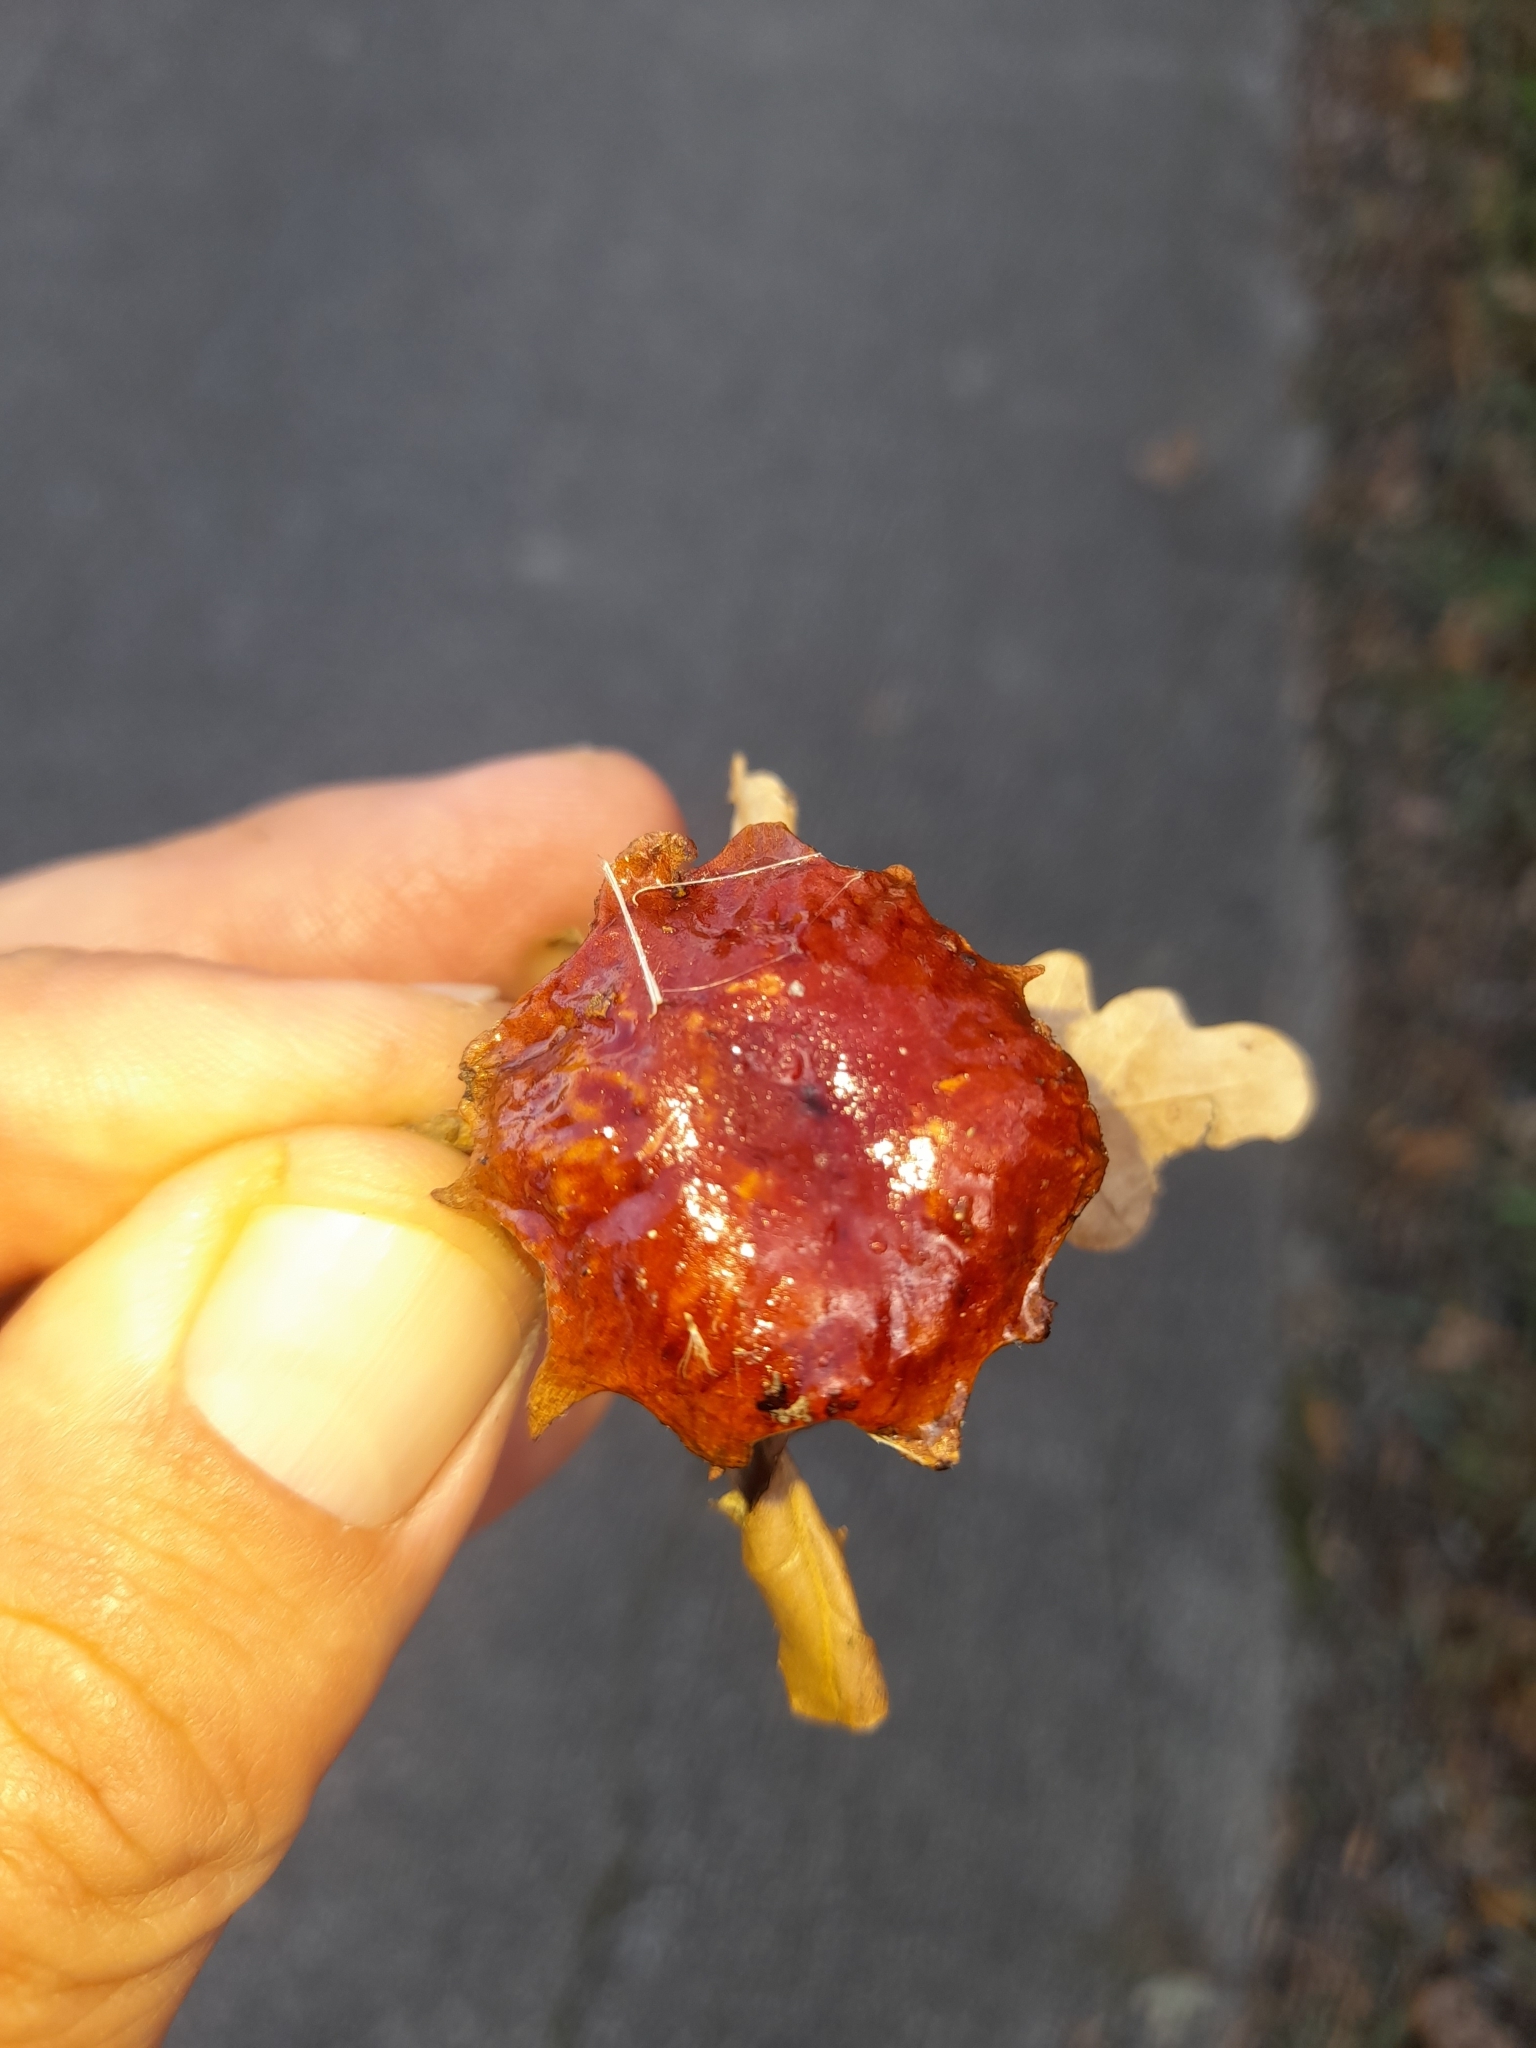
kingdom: Animalia
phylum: Arthropoda
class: Insecta
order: Hymenoptera
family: Cynipidae
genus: Andricus
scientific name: Andricus dentimitratus
